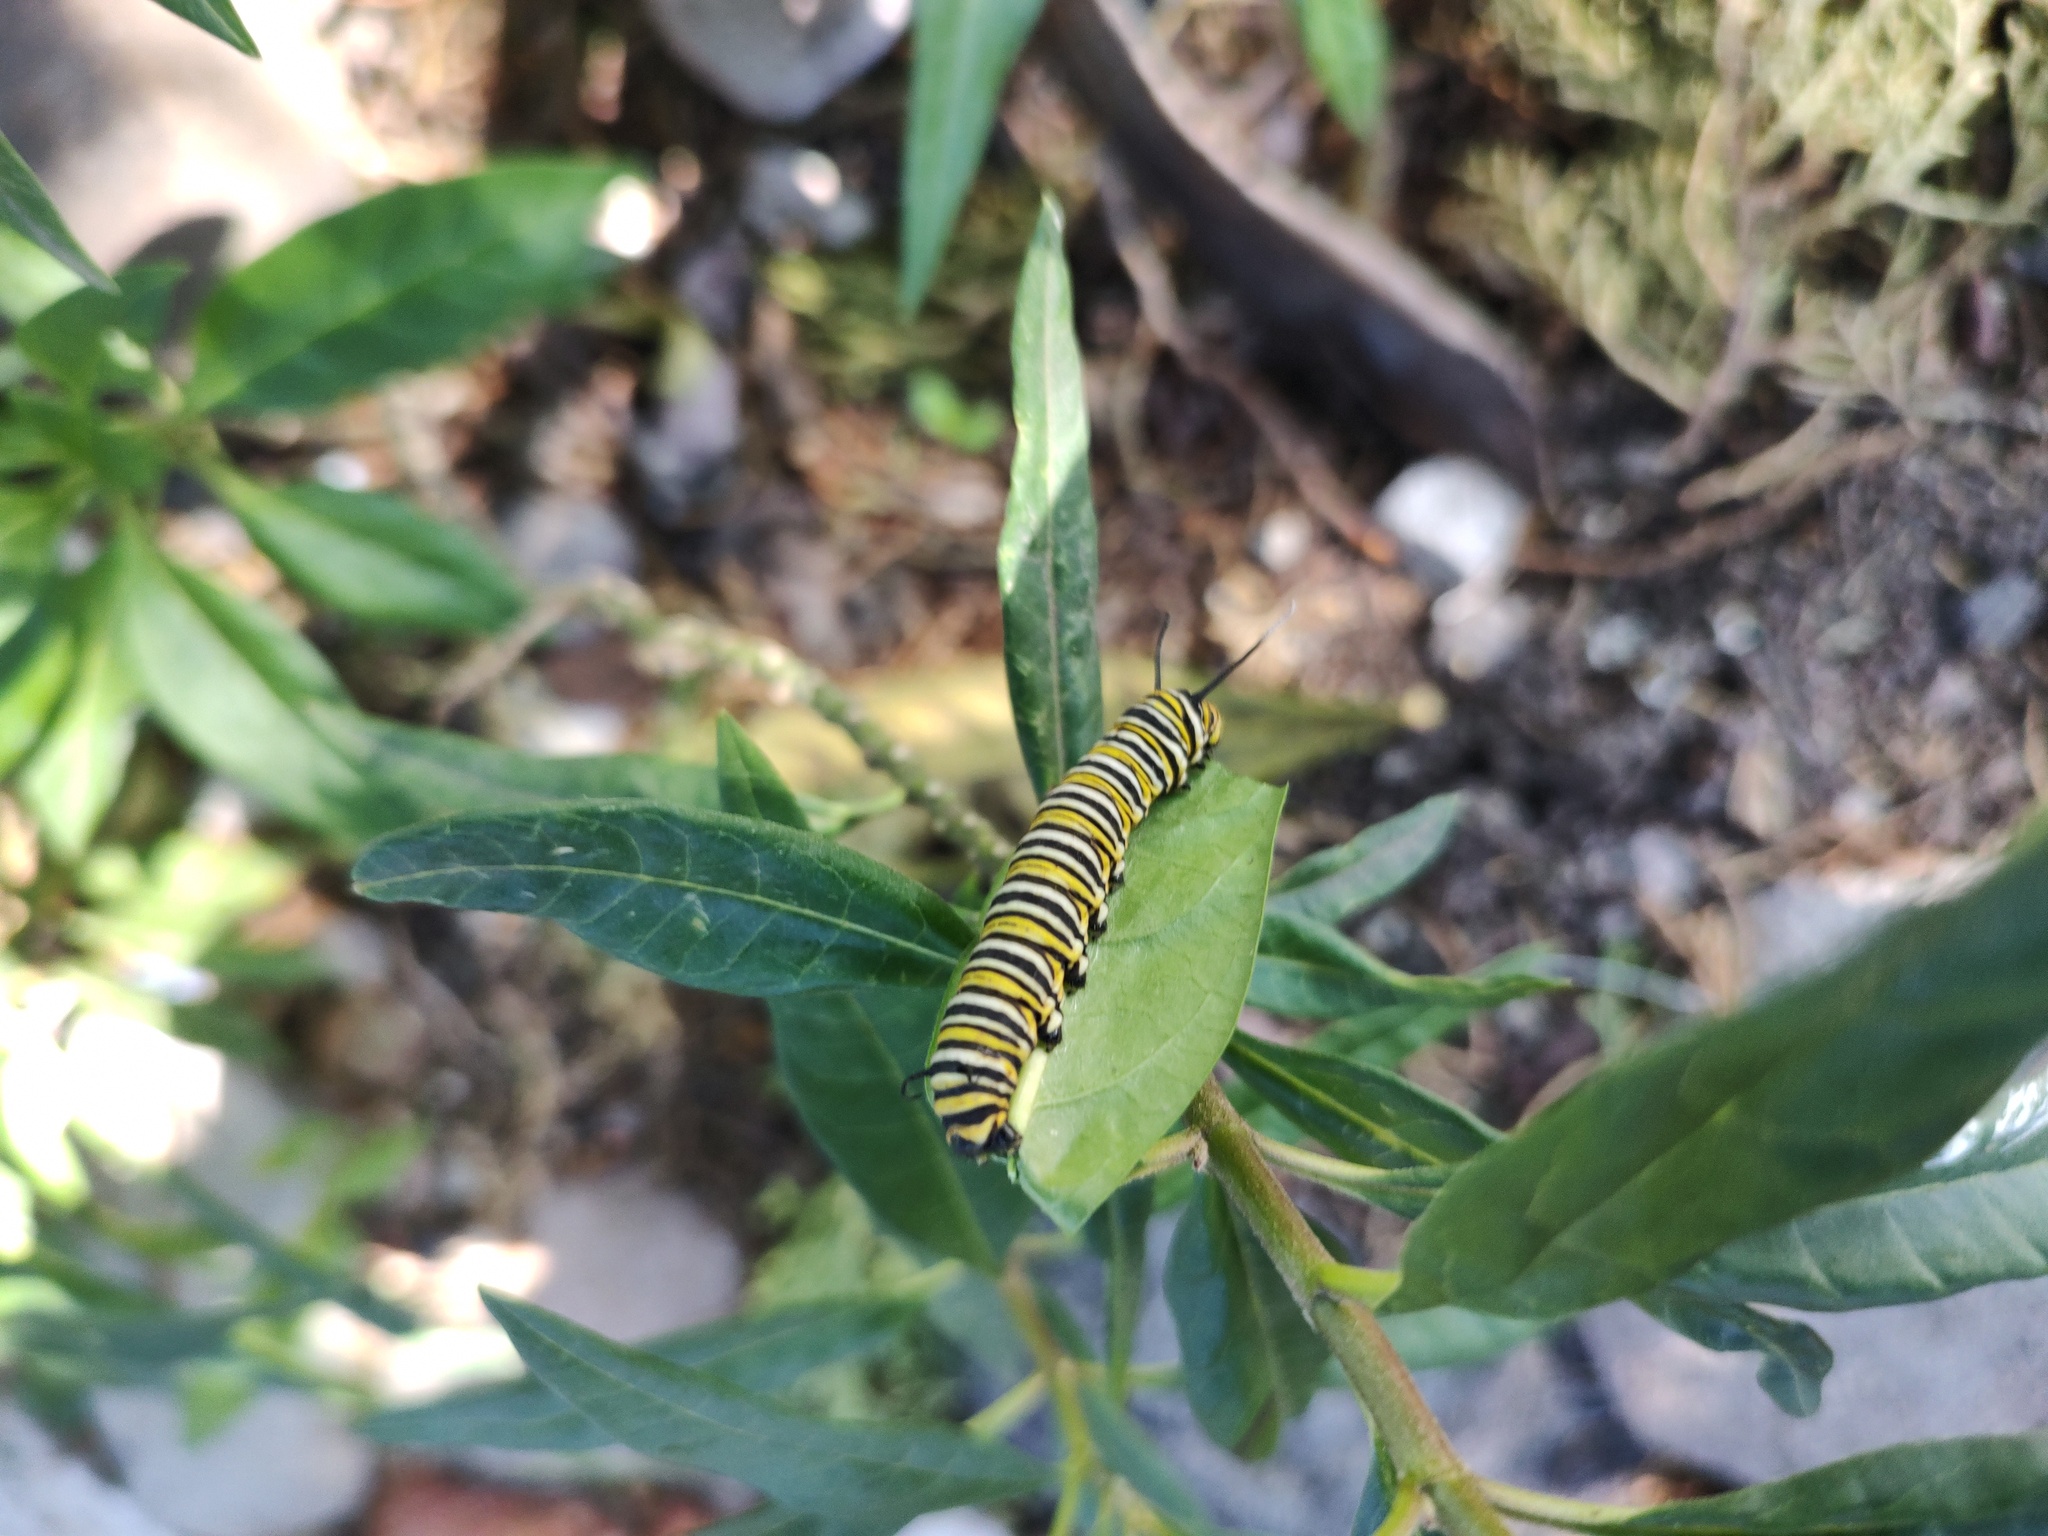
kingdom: Animalia
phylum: Arthropoda
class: Insecta
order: Lepidoptera
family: Nymphalidae
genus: Danaus
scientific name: Danaus plexippus
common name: Monarch
